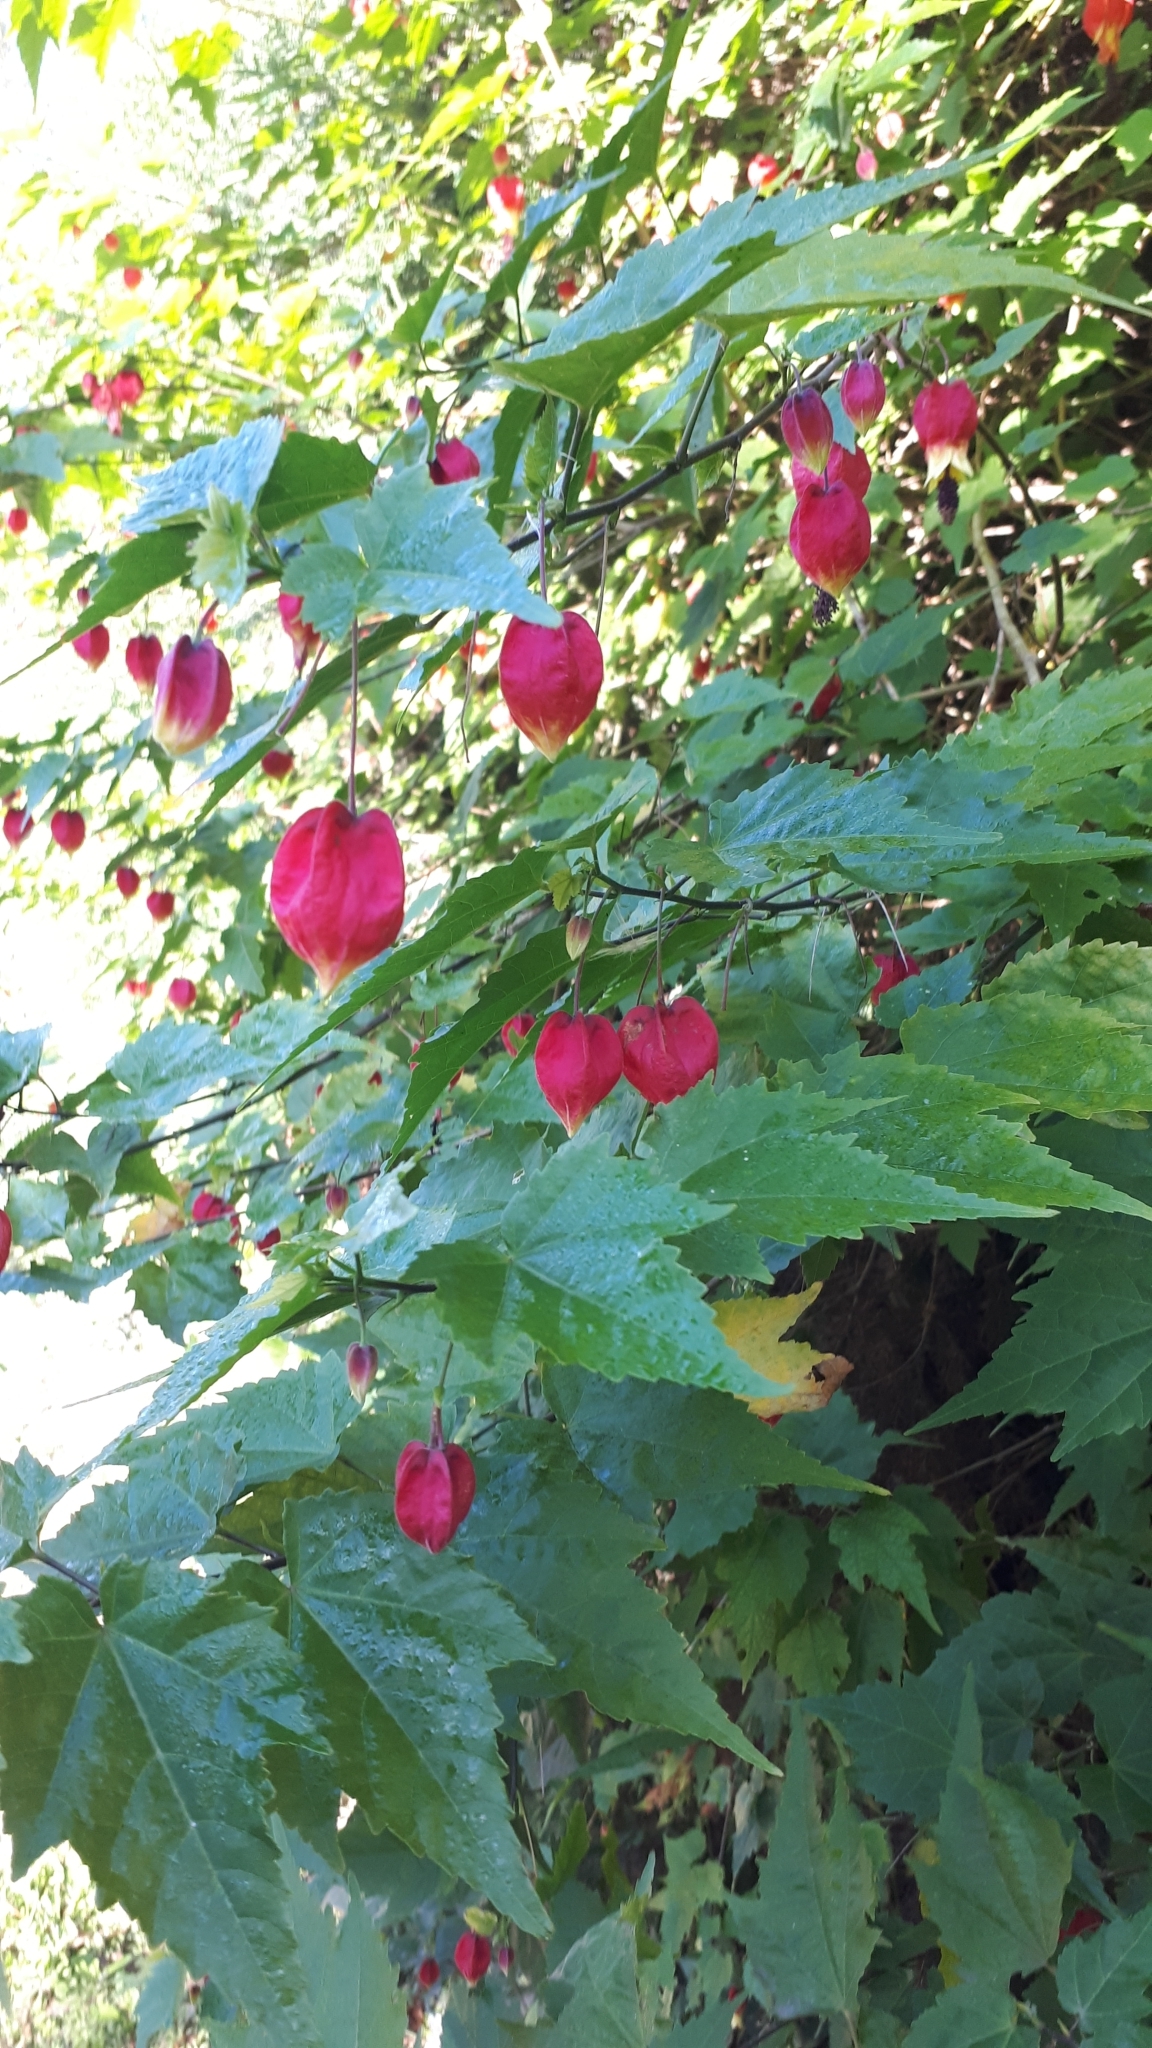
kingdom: Plantae
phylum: Tracheophyta
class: Magnoliopsida
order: Malvales
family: Malvaceae
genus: Callianthe
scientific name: Callianthe megapotamica
